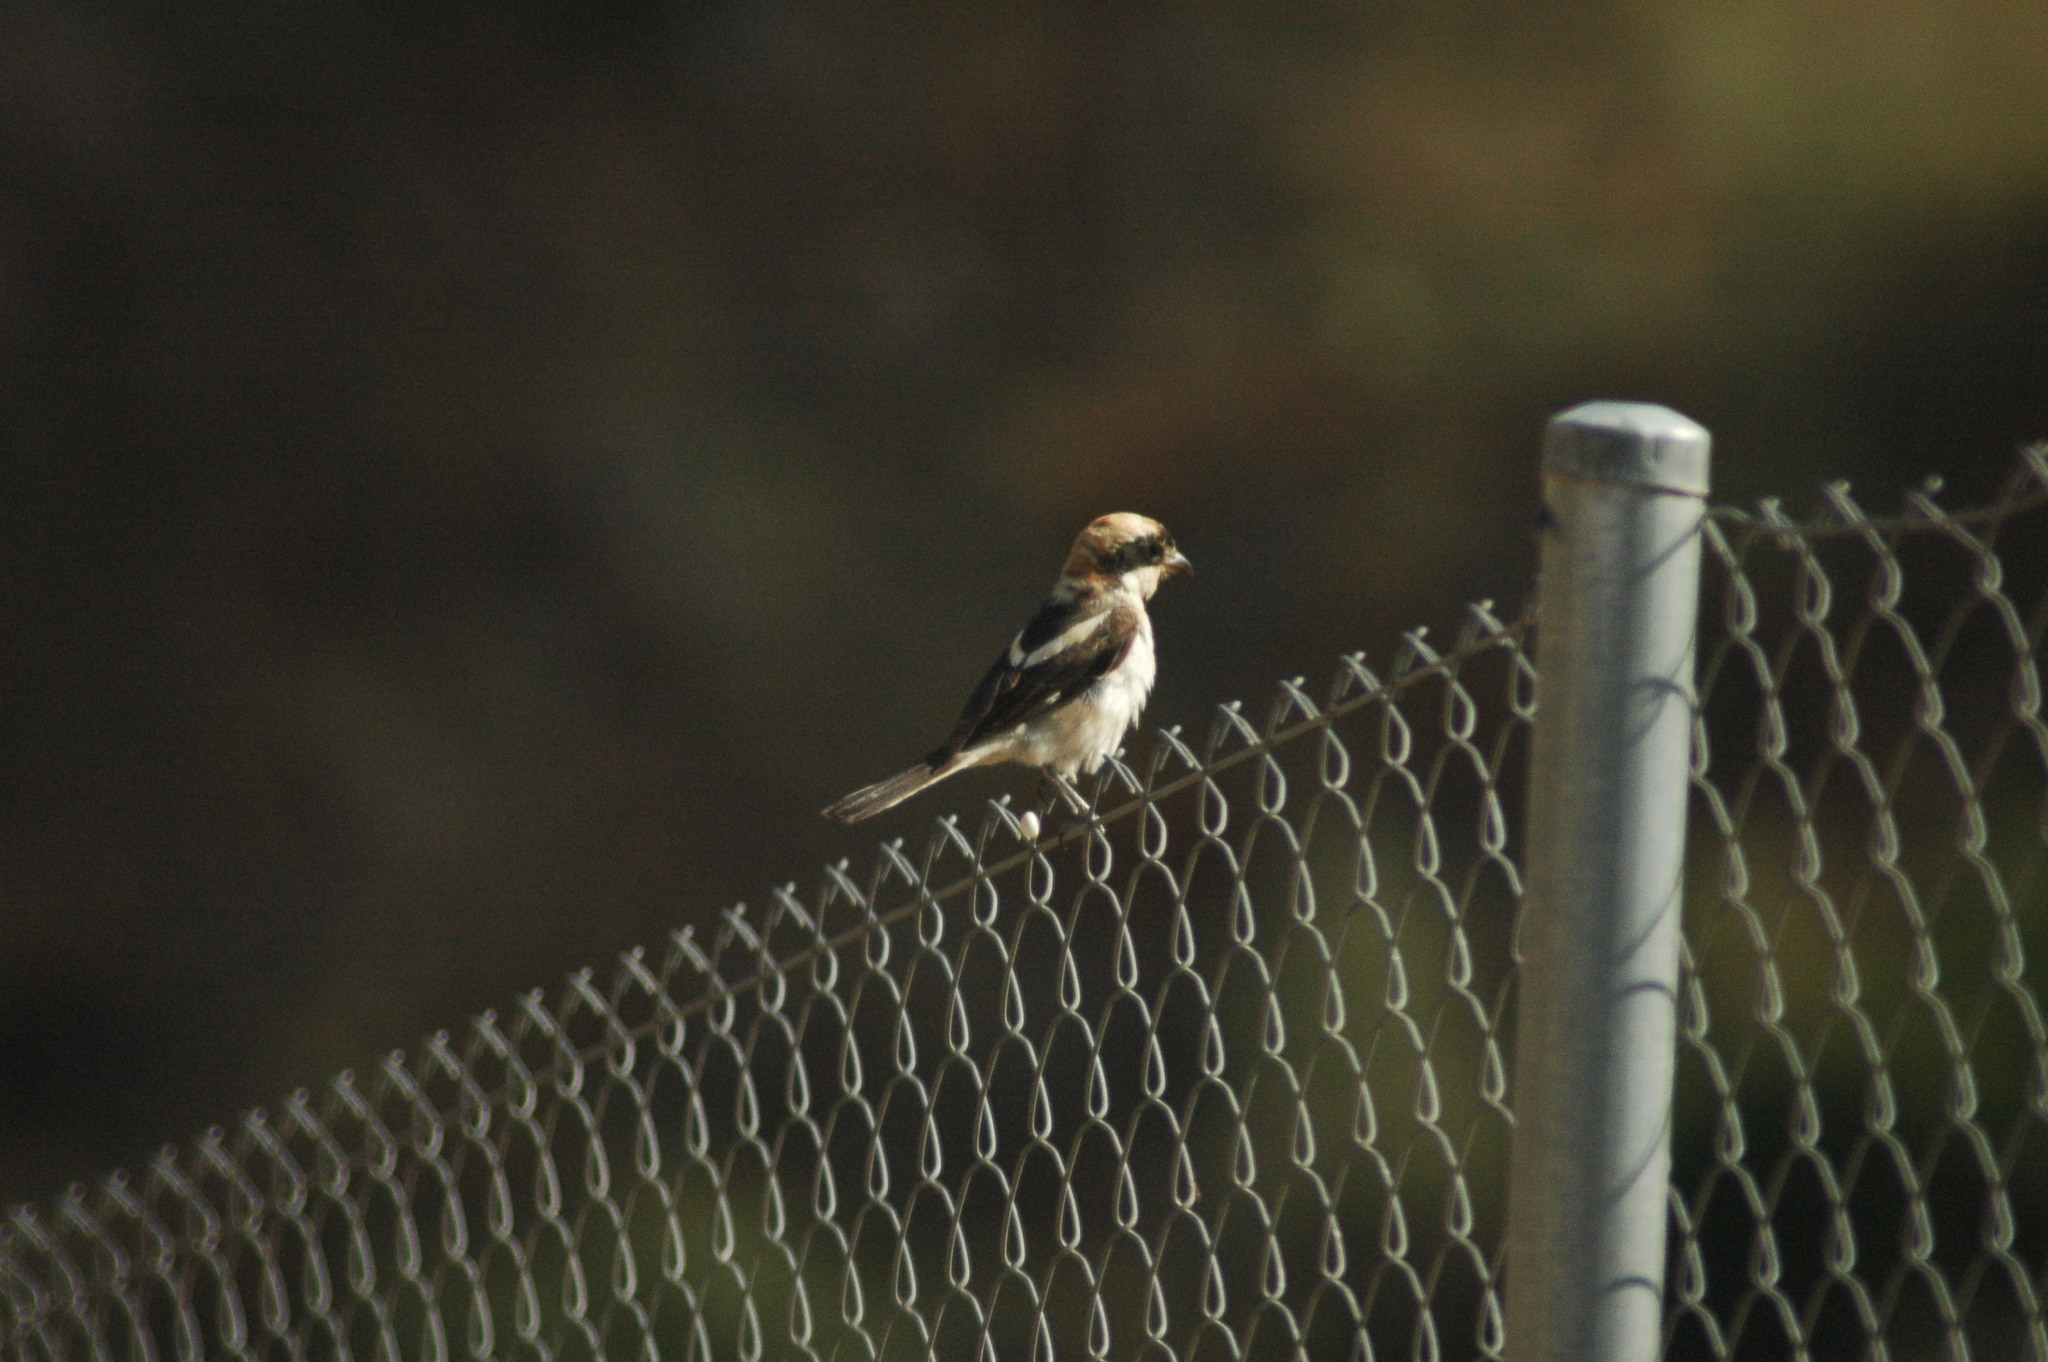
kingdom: Animalia
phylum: Chordata
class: Aves
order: Passeriformes
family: Laniidae
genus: Lanius
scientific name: Lanius senator
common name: Woodchat shrike
